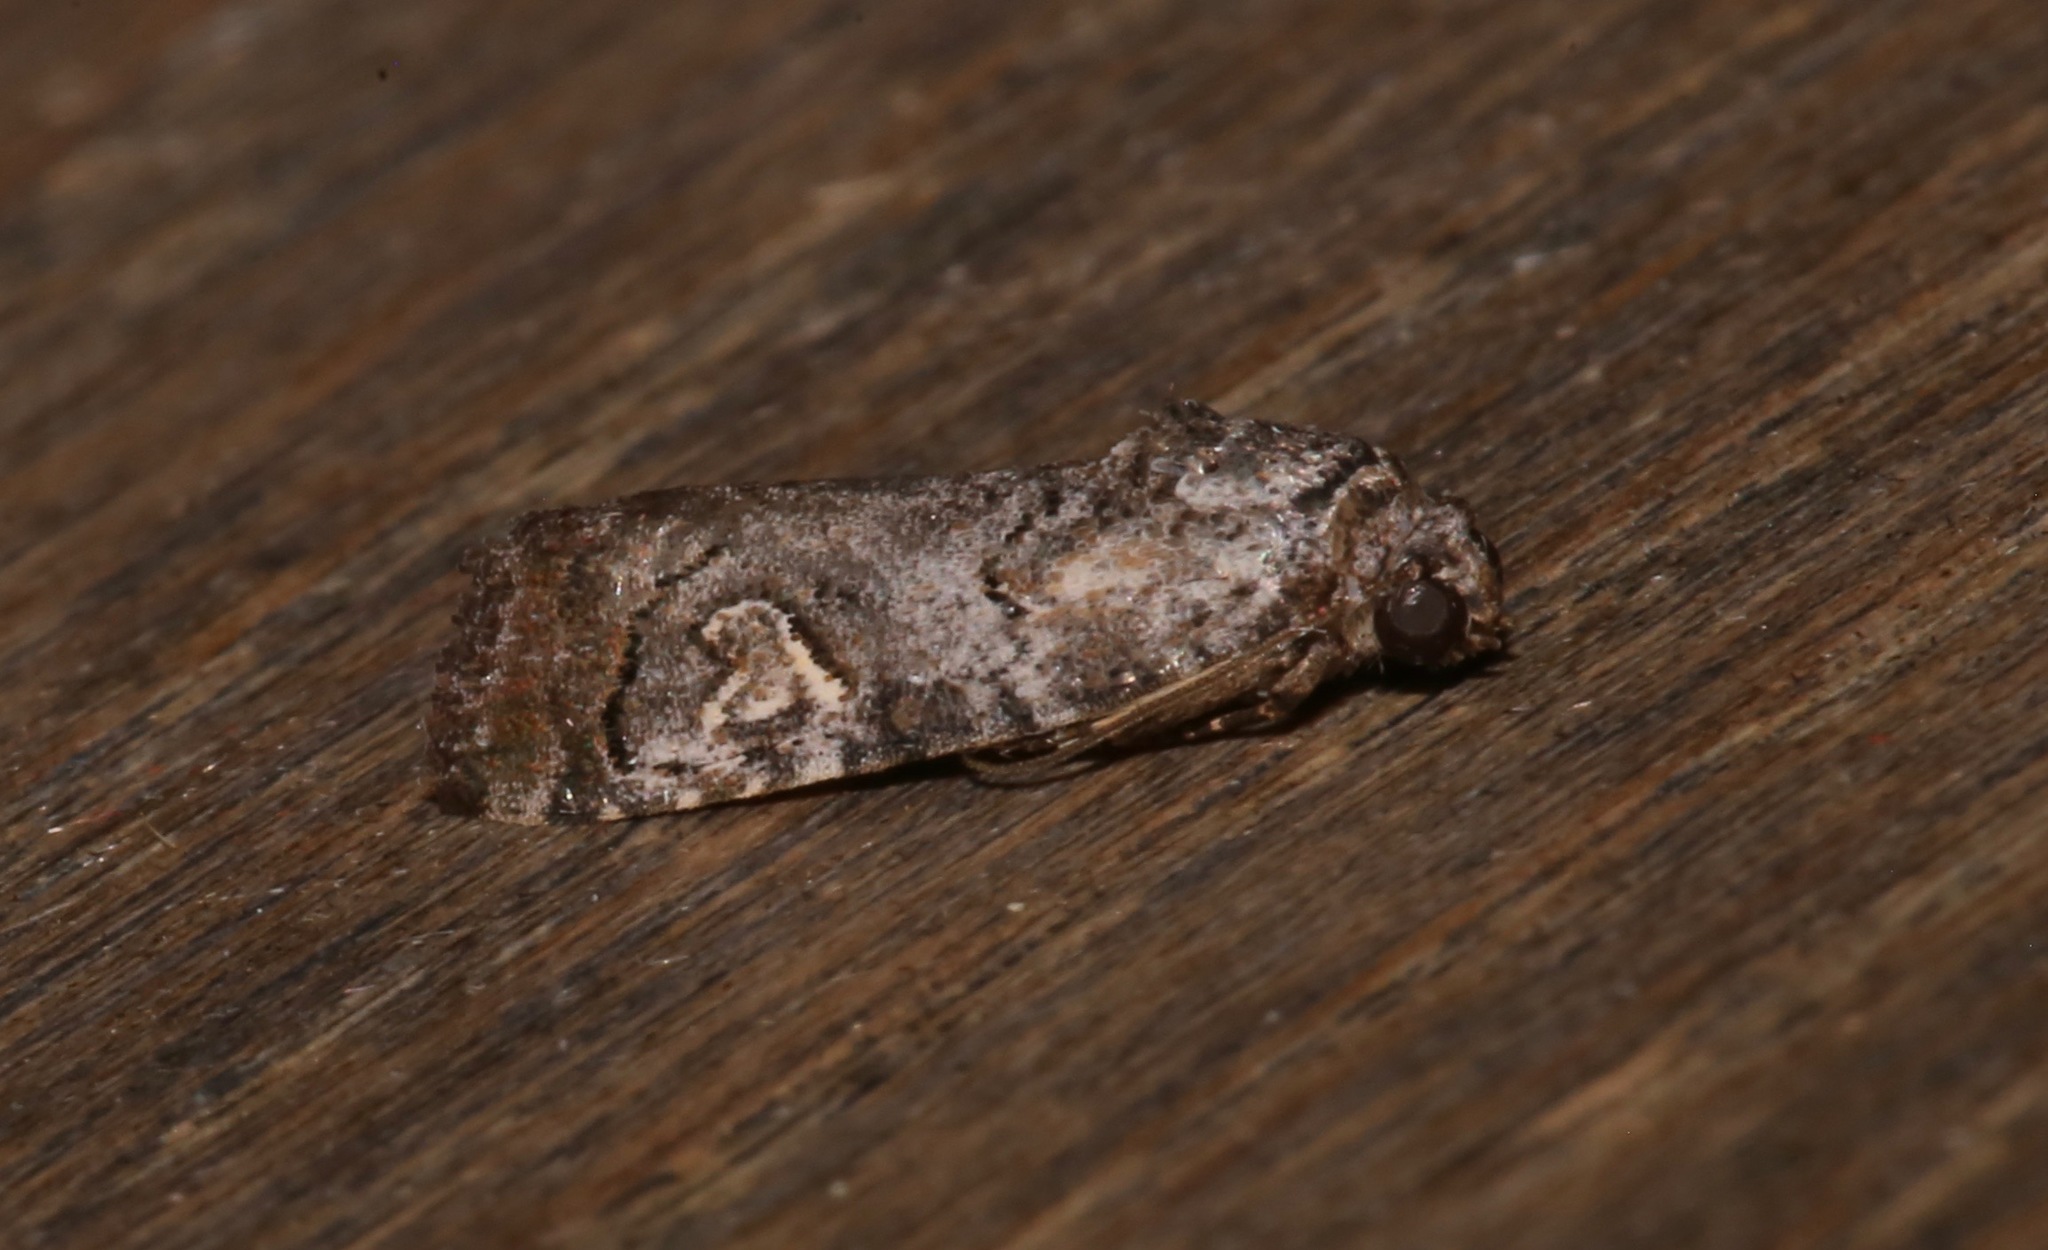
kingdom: Animalia
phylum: Arthropoda
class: Insecta
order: Lepidoptera
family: Noctuidae
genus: Metaponpneumata
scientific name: Metaponpneumata rogenhoferi
